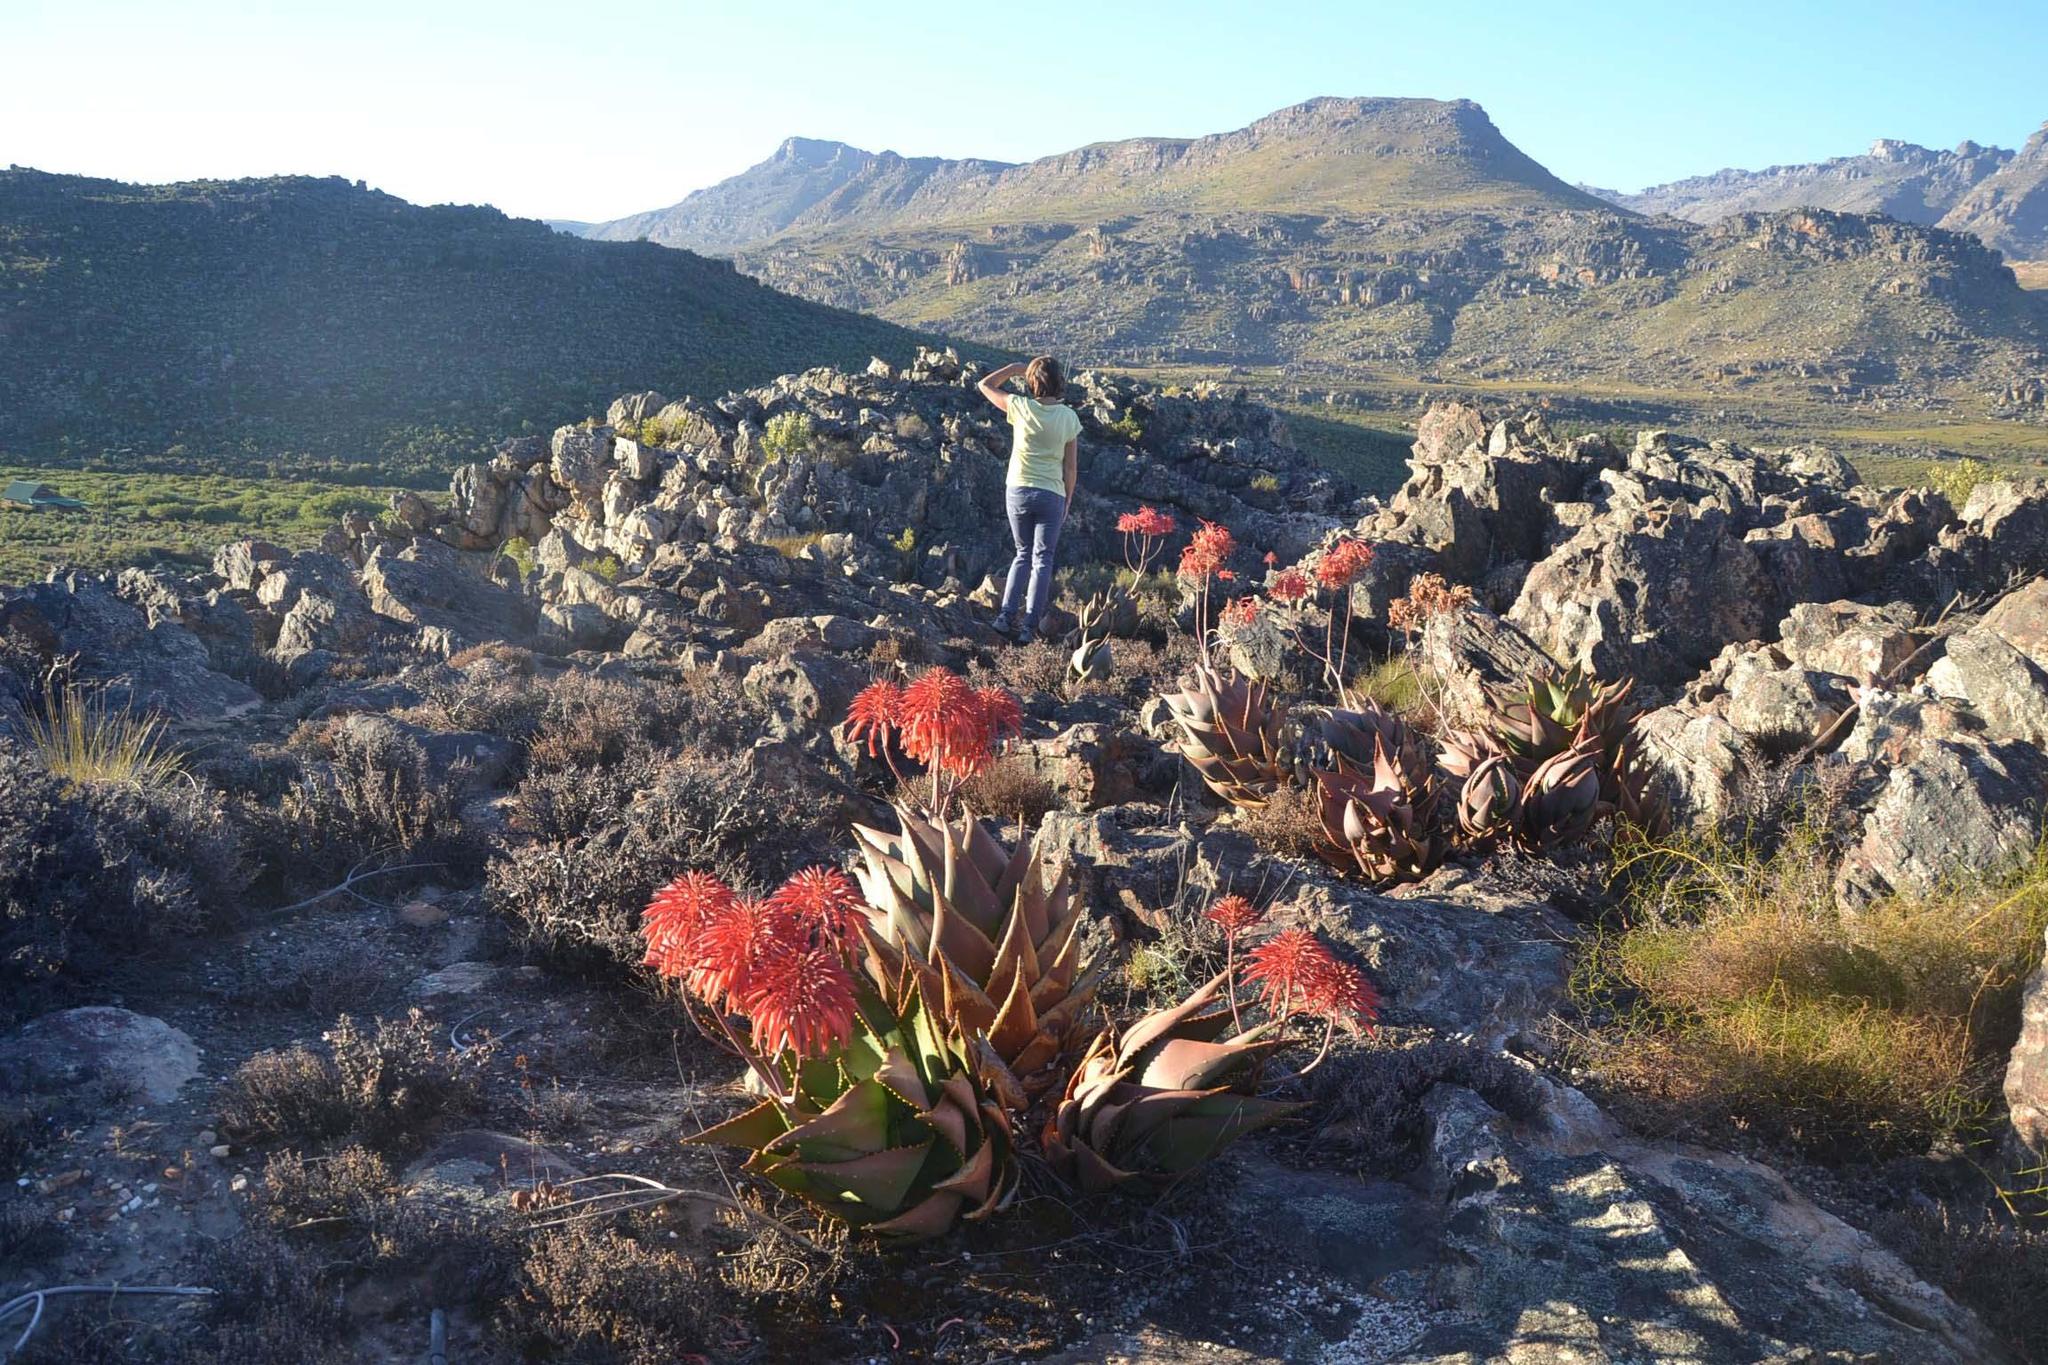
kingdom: Plantae
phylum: Tracheophyta
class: Liliopsida
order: Asparagales
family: Asphodelaceae
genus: Aloe
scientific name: Aloe perfoliata
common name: Mitra aloe
